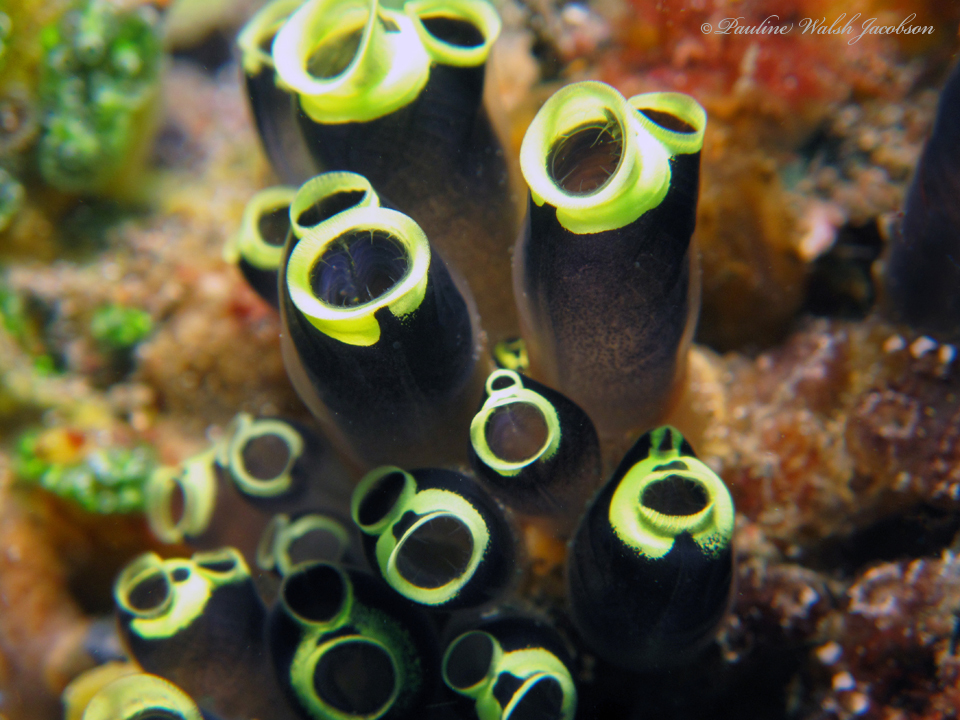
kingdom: Animalia
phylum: Chordata
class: Ascidiacea
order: Aplousobranchia
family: Clavelinidae
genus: Clavelina
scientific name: Clavelina robusta
